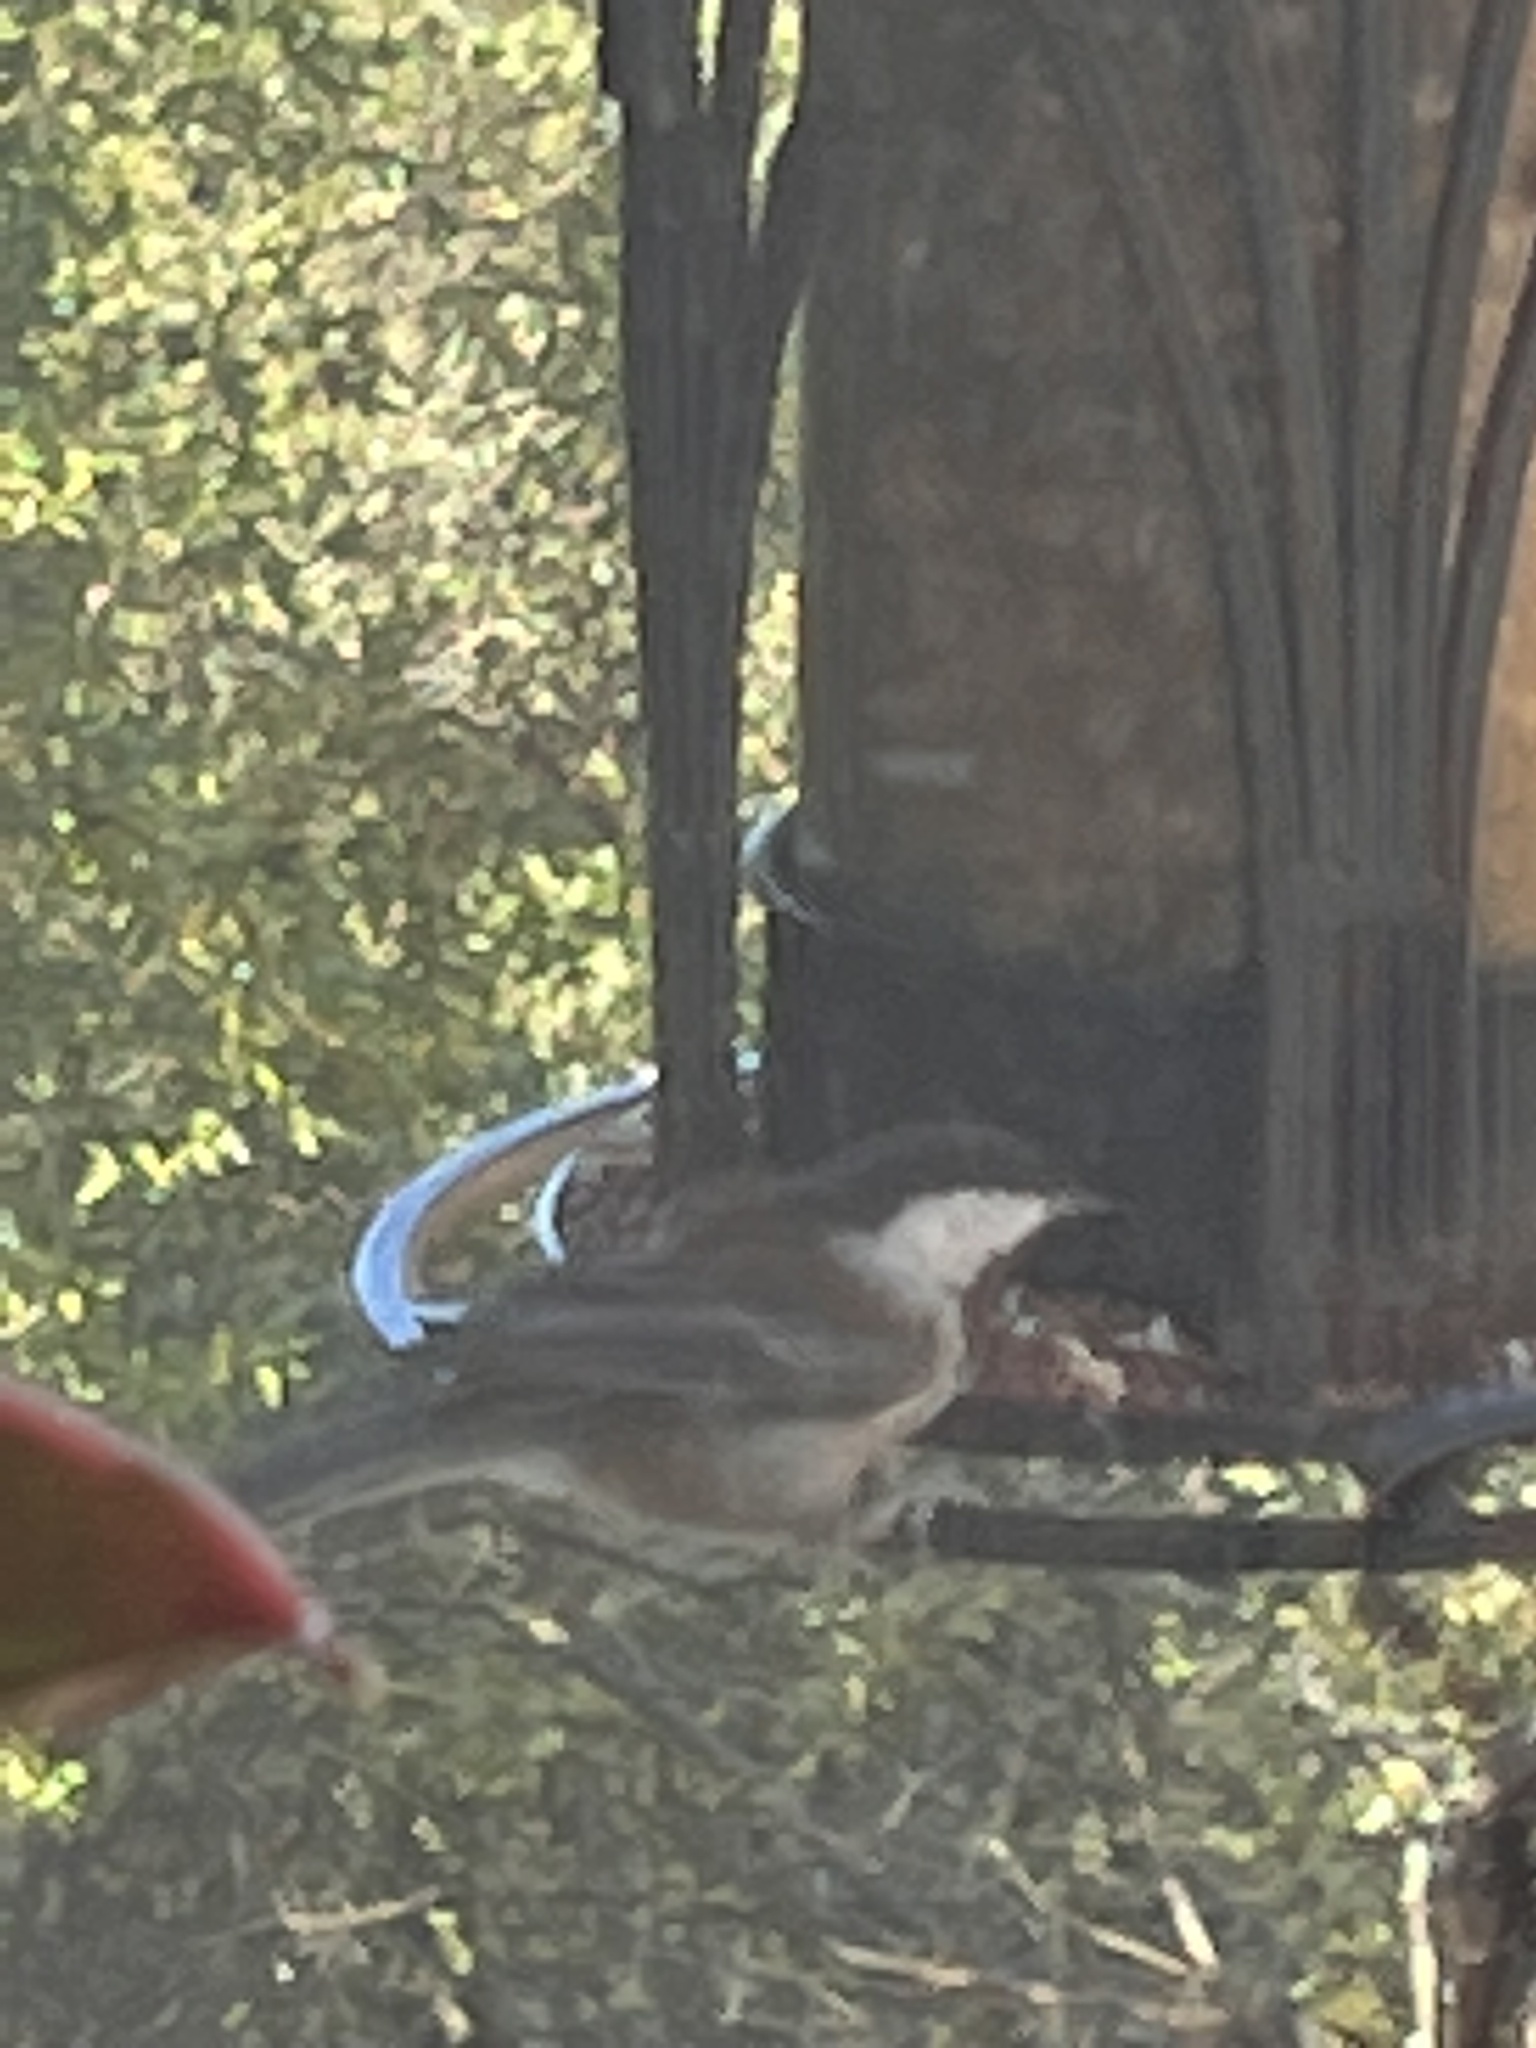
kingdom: Animalia
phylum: Chordata
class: Aves
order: Passeriformes
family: Paridae
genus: Poecile
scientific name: Poecile rufescens
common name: Chestnut-backed chickadee
